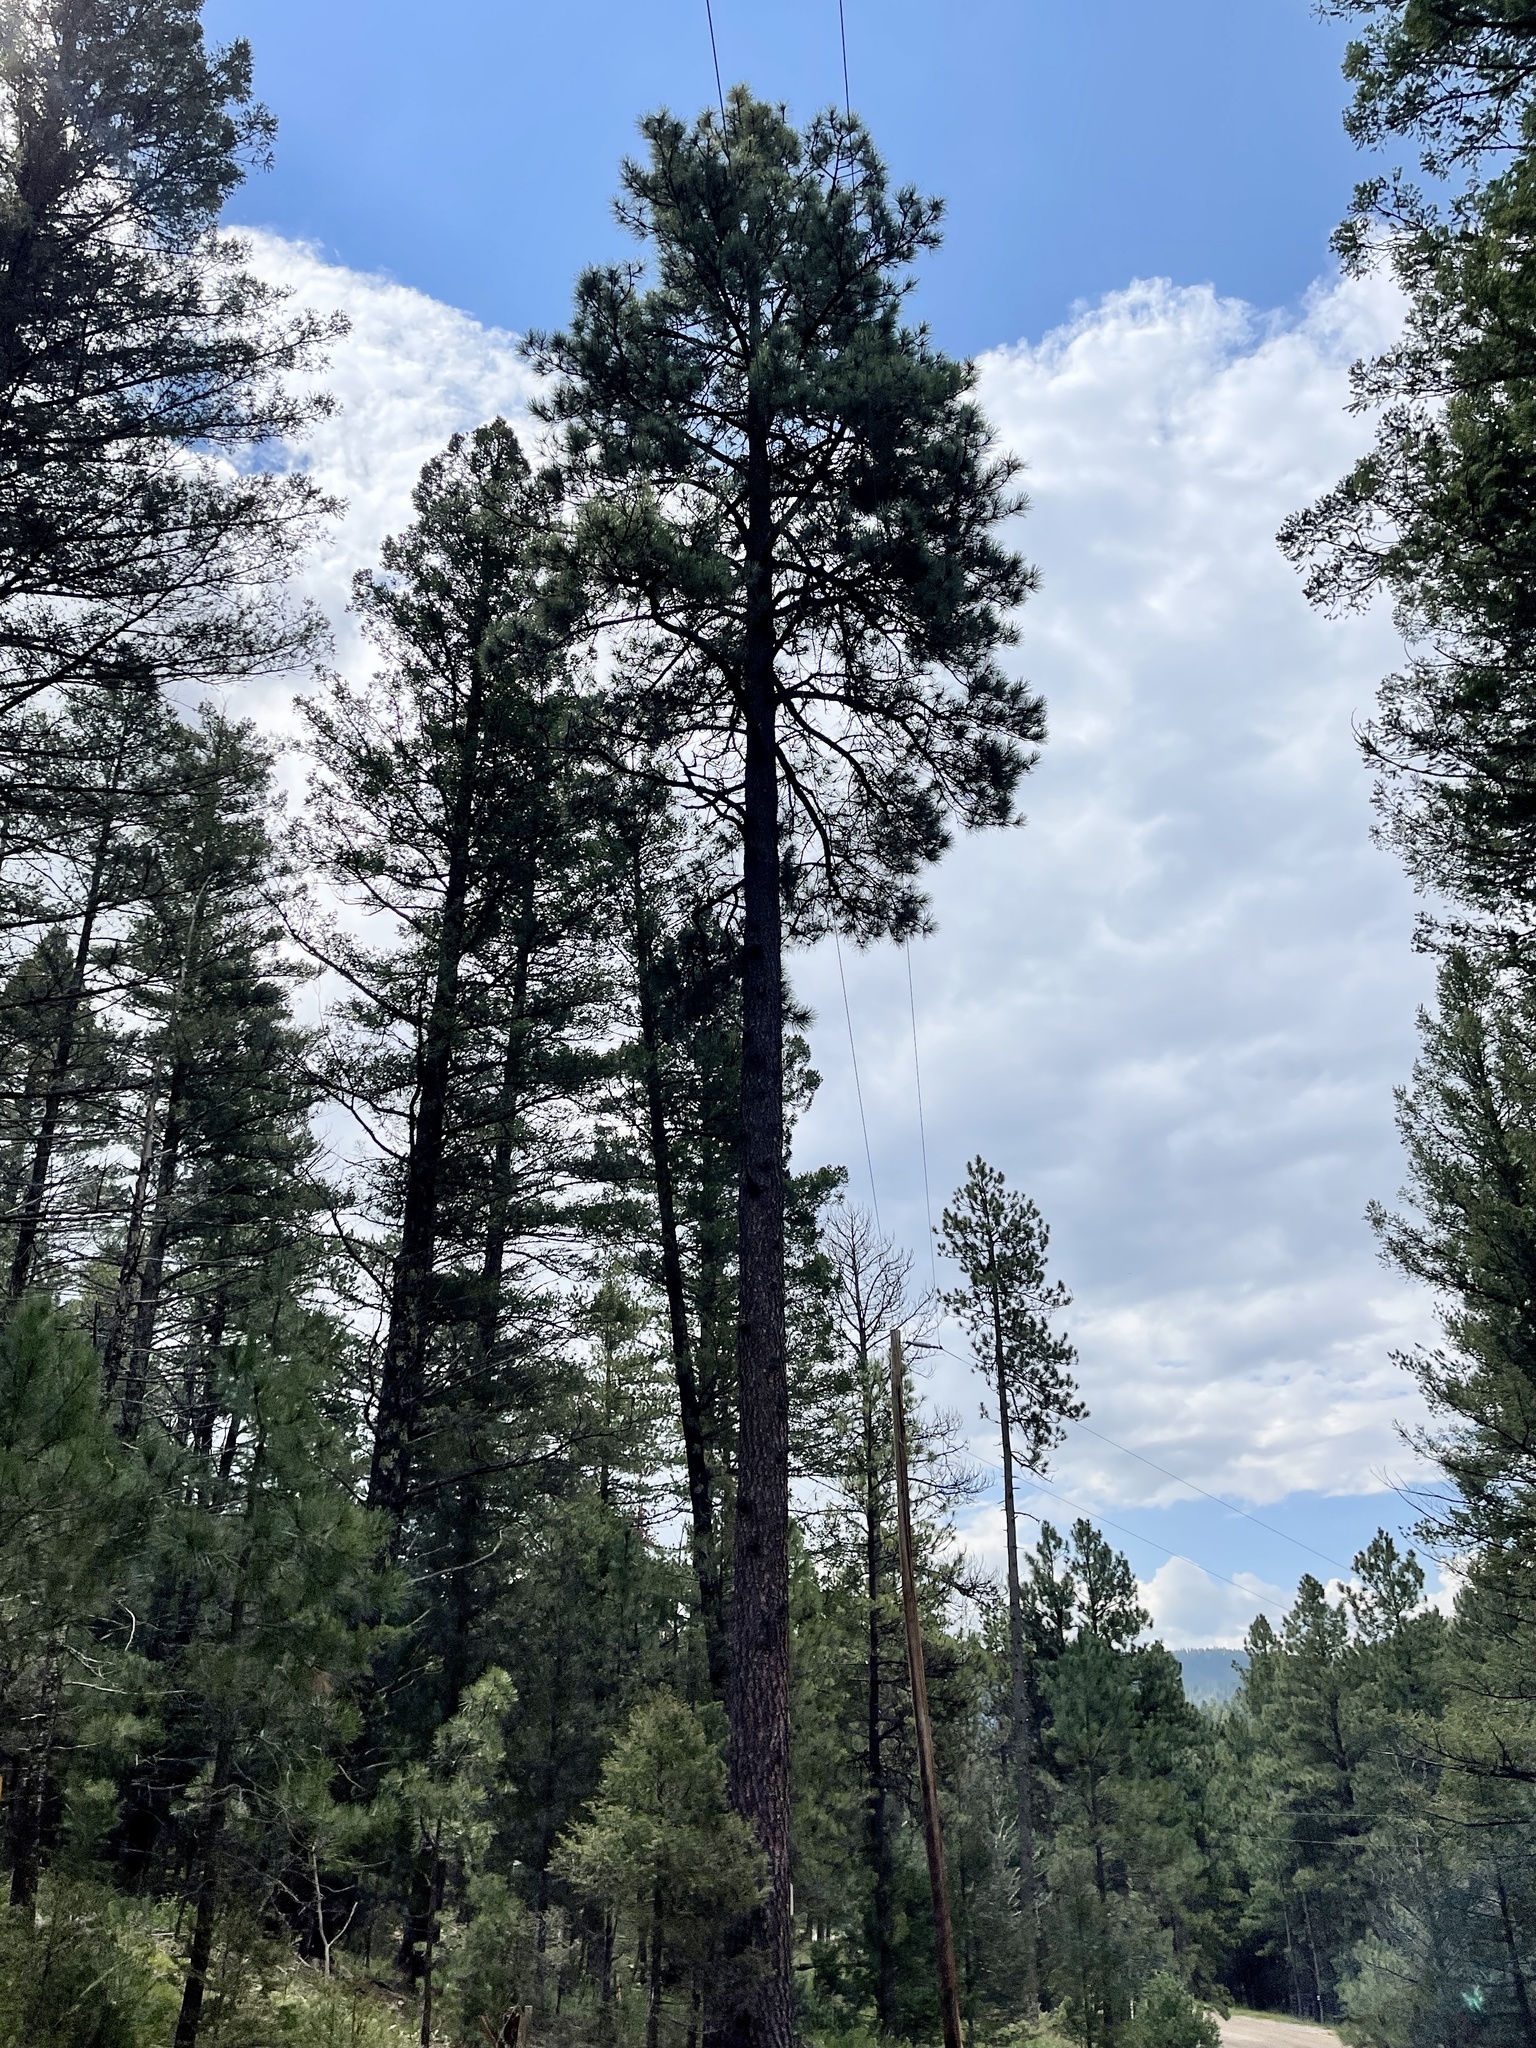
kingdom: Plantae
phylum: Tracheophyta
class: Pinopsida
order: Pinales
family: Pinaceae
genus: Pinus
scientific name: Pinus ponderosa
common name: Western yellow-pine
